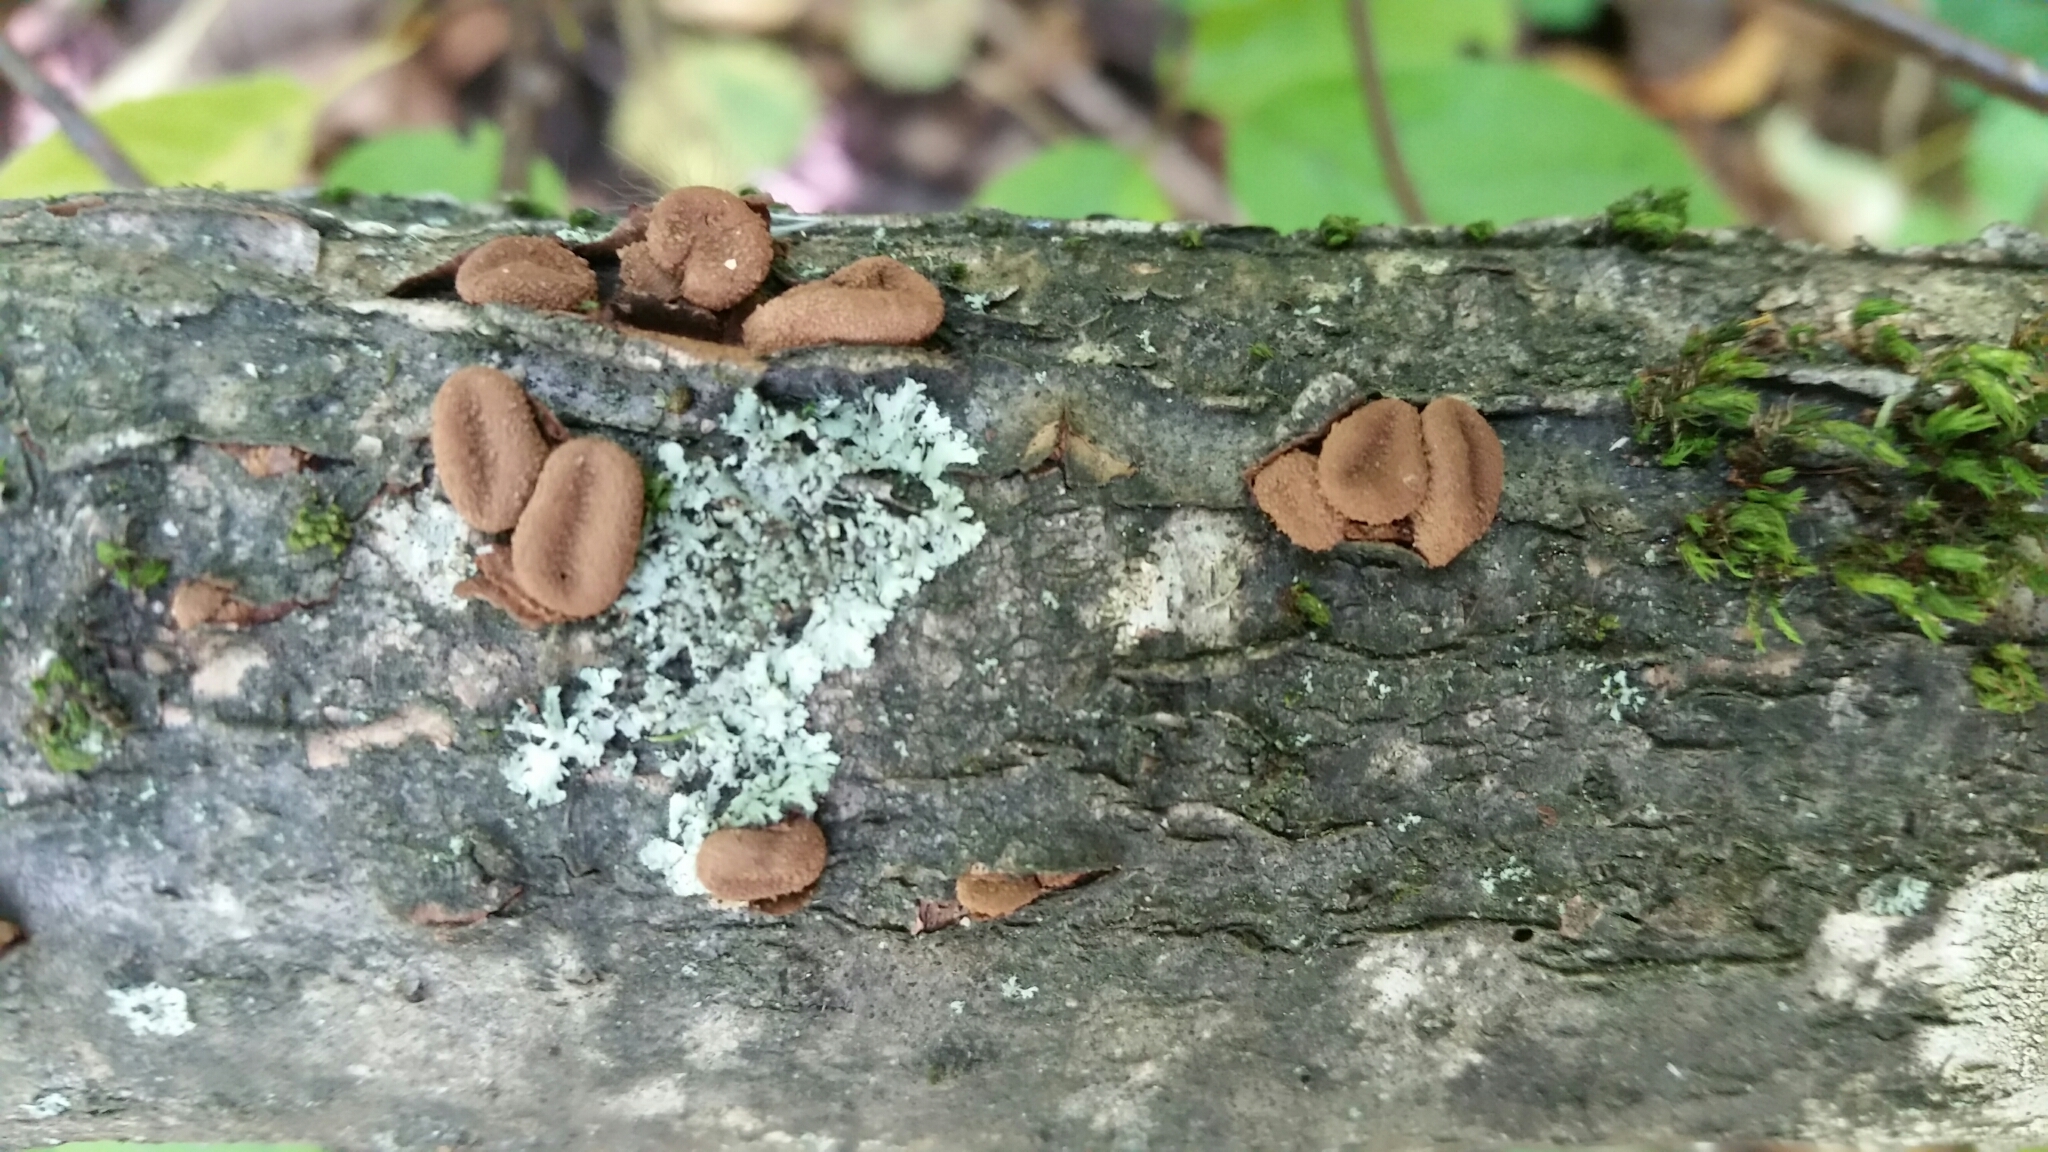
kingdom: Fungi
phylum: Ascomycota
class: Leotiomycetes
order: Helotiales
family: Cenangiaceae
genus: Encoelia
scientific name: Encoelia furfuracea
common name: Spring hazelcup
